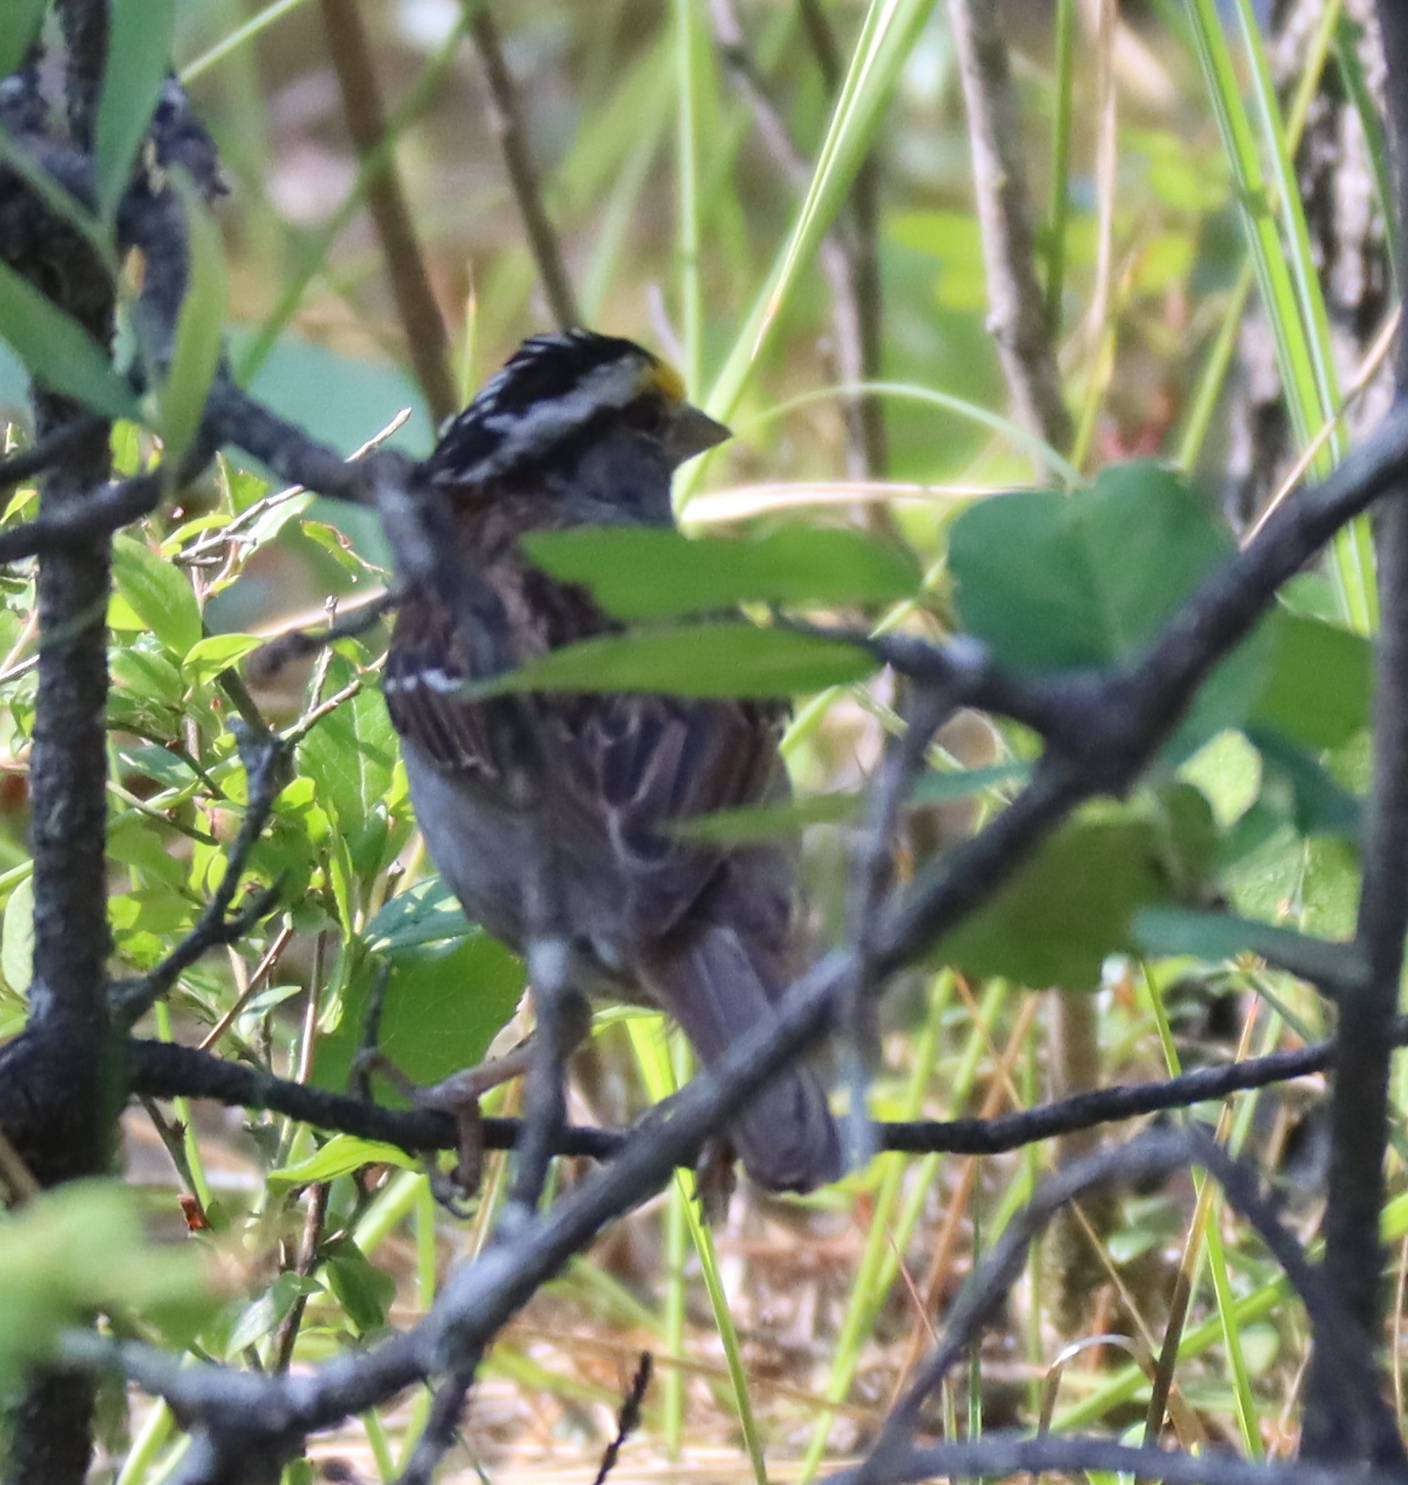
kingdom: Animalia
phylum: Chordata
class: Aves
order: Passeriformes
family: Passerellidae
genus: Zonotrichia
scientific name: Zonotrichia albicollis
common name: White-throated sparrow
